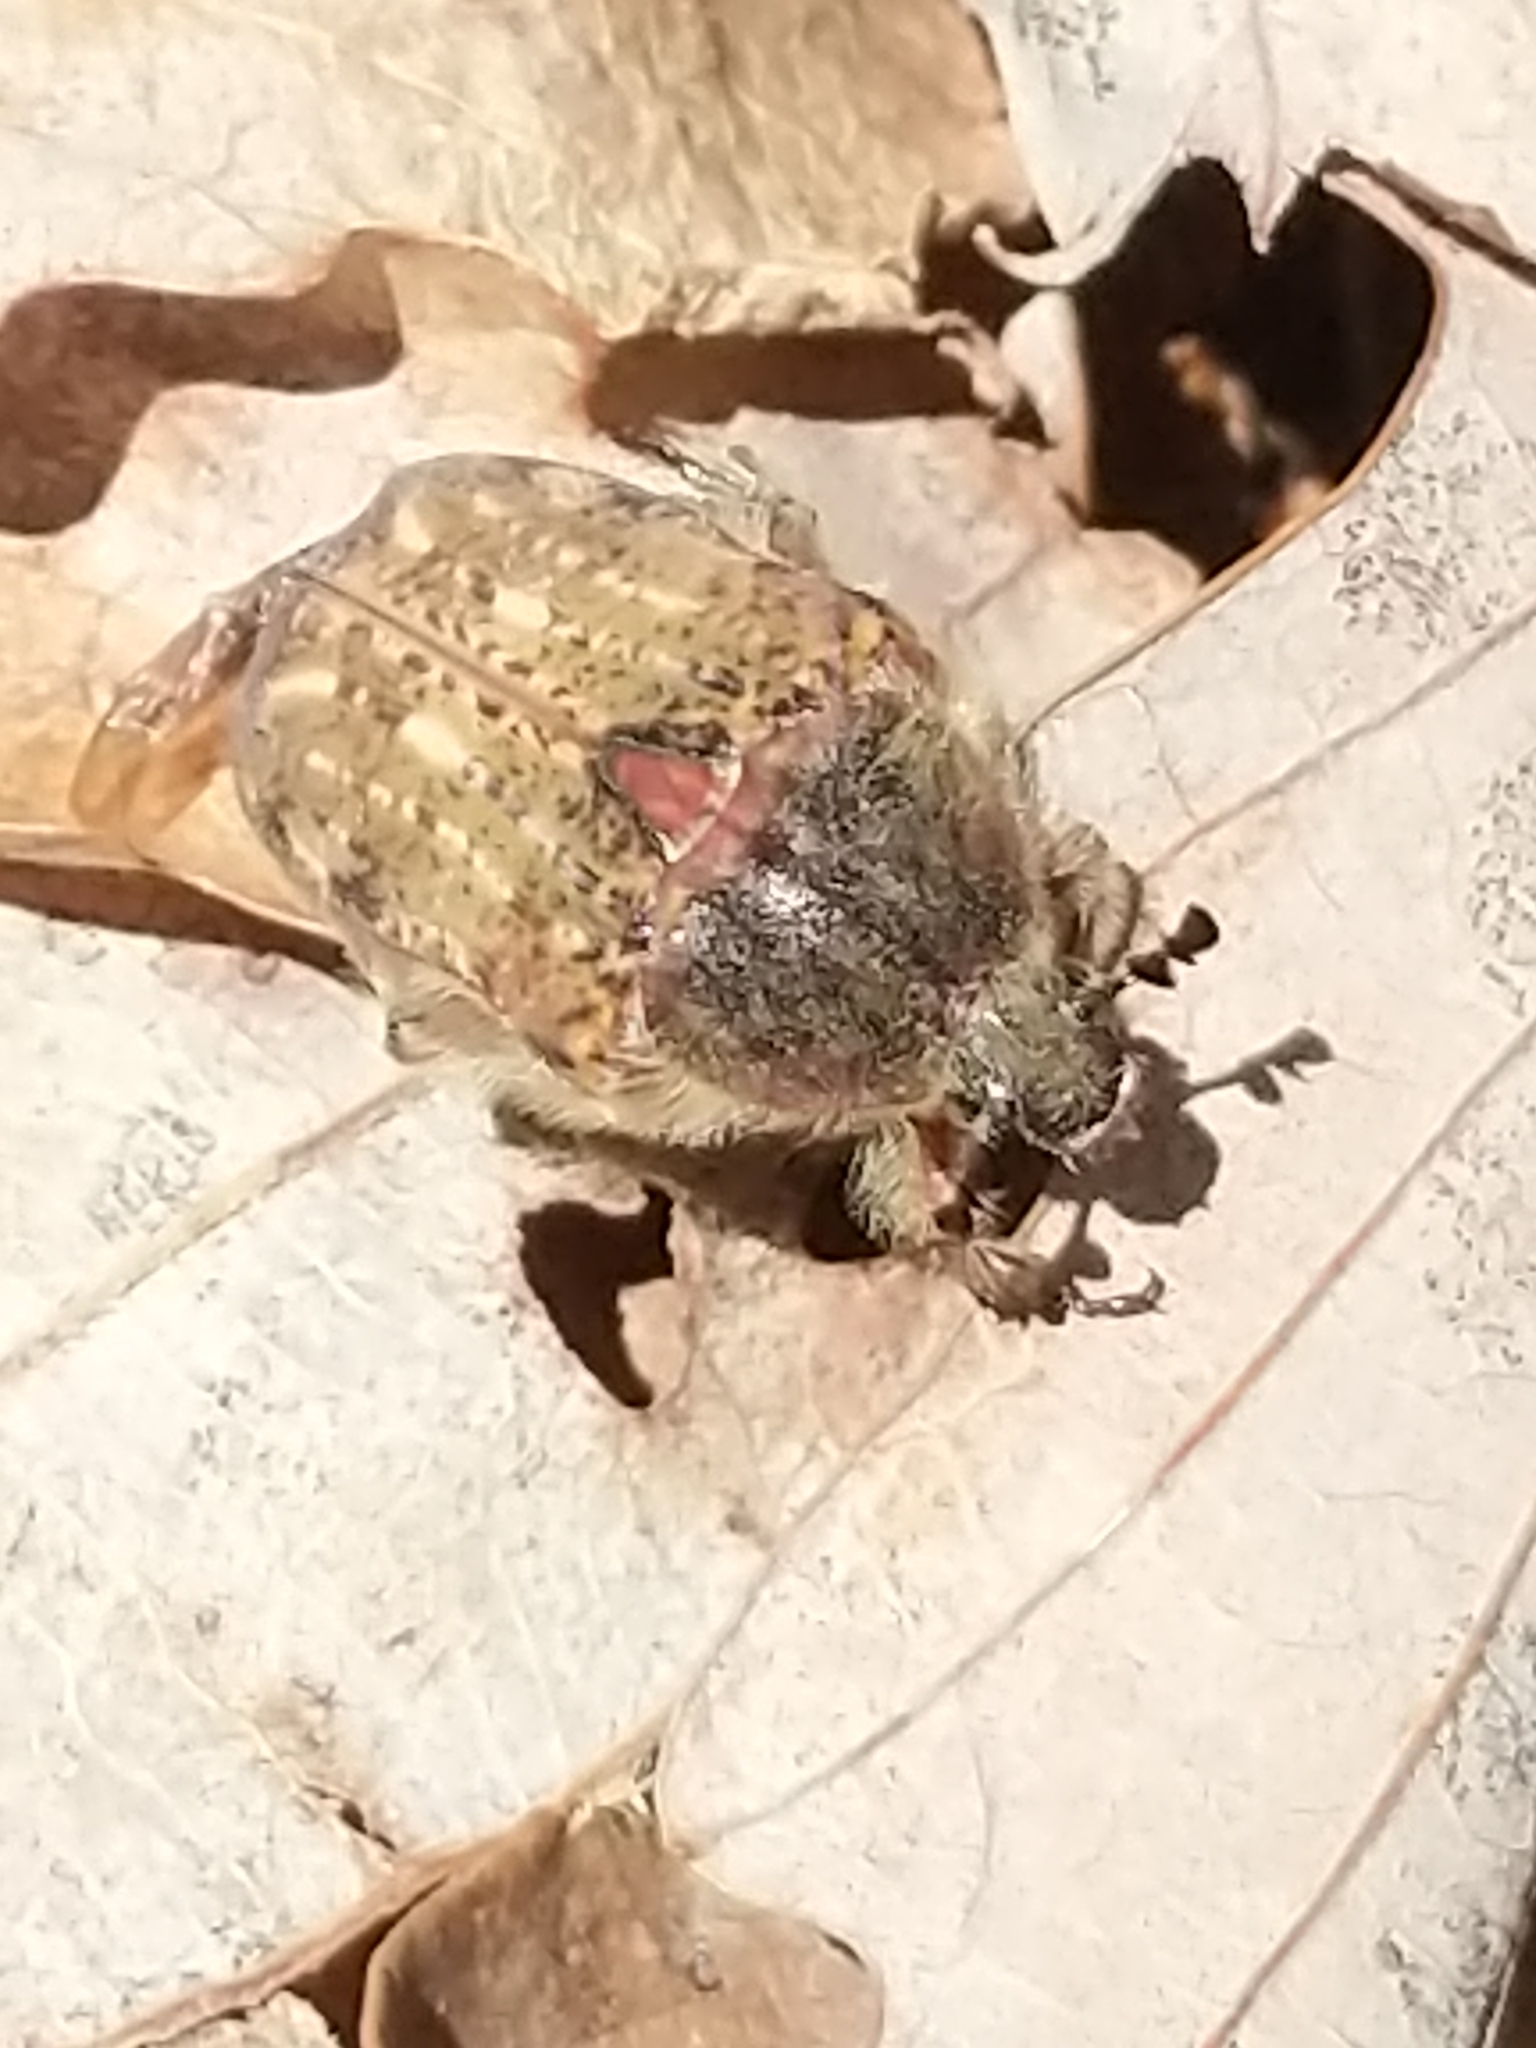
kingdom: Animalia
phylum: Arthropoda
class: Insecta
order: Coleoptera
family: Scarabaeidae
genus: Euphoria
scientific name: Euphoria inda
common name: Bumble flower beetle
